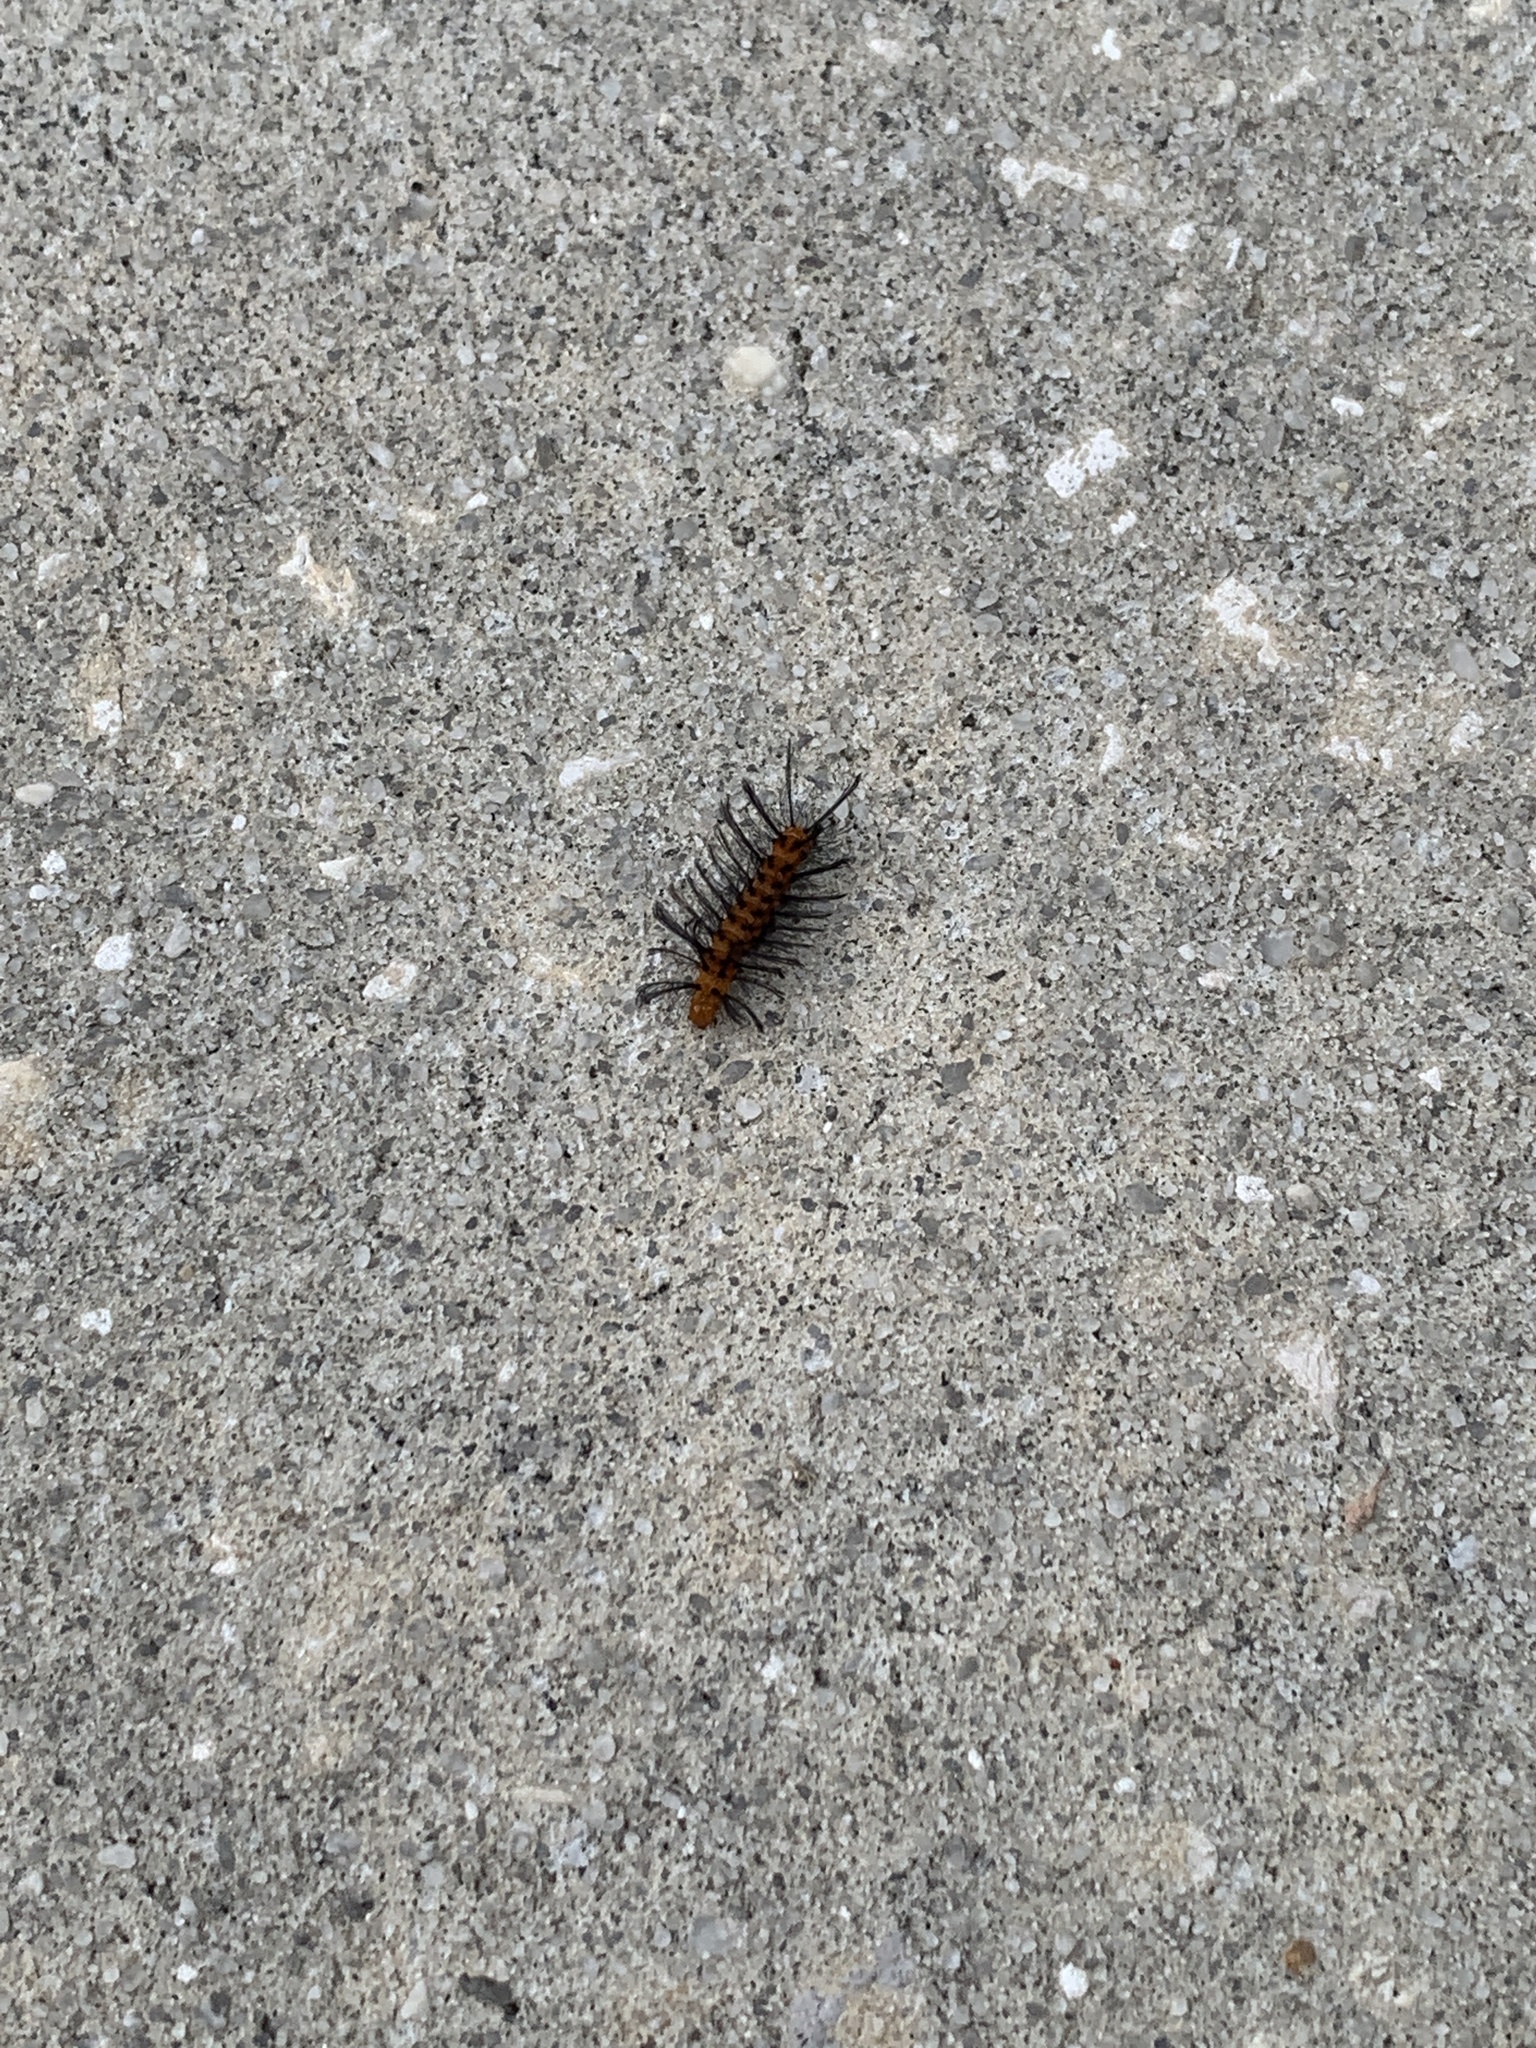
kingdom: Animalia
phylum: Arthropoda
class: Insecta
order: Lepidoptera
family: Erebidae
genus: Syntomeida
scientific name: Syntomeida epilais
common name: Polka-dot wasp moth
